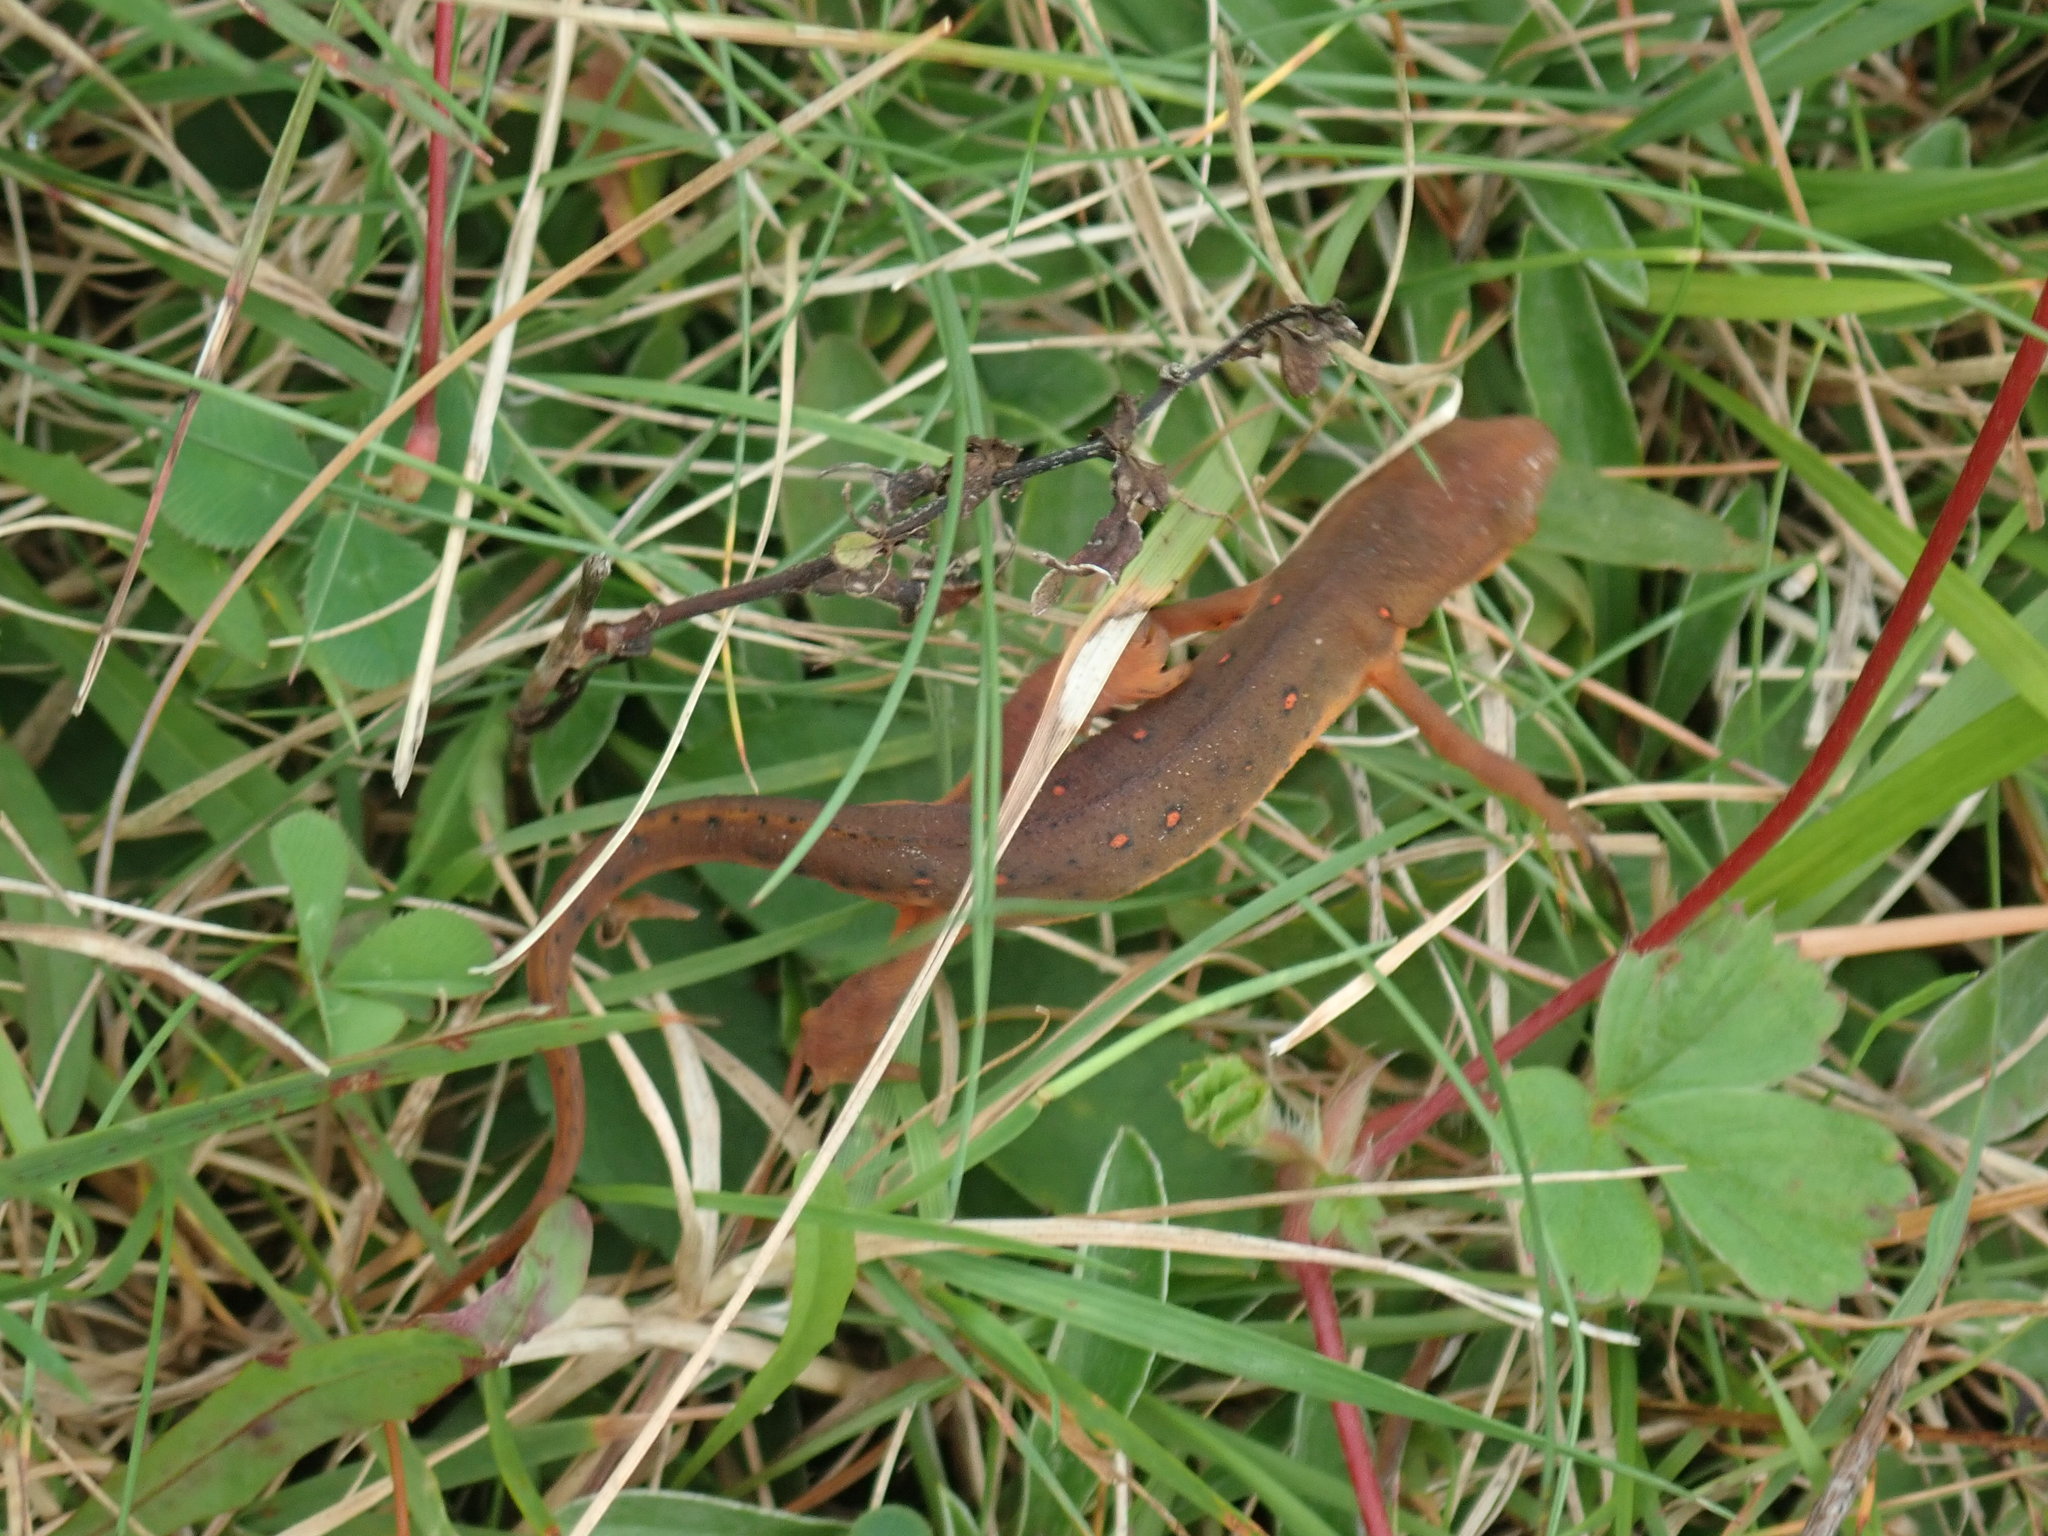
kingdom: Animalia
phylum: Chordata
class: Amphibia
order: Caudata
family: Salamandridae
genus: Notophthalmus
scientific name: Notophthalmus viridescens
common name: Eastern newt
